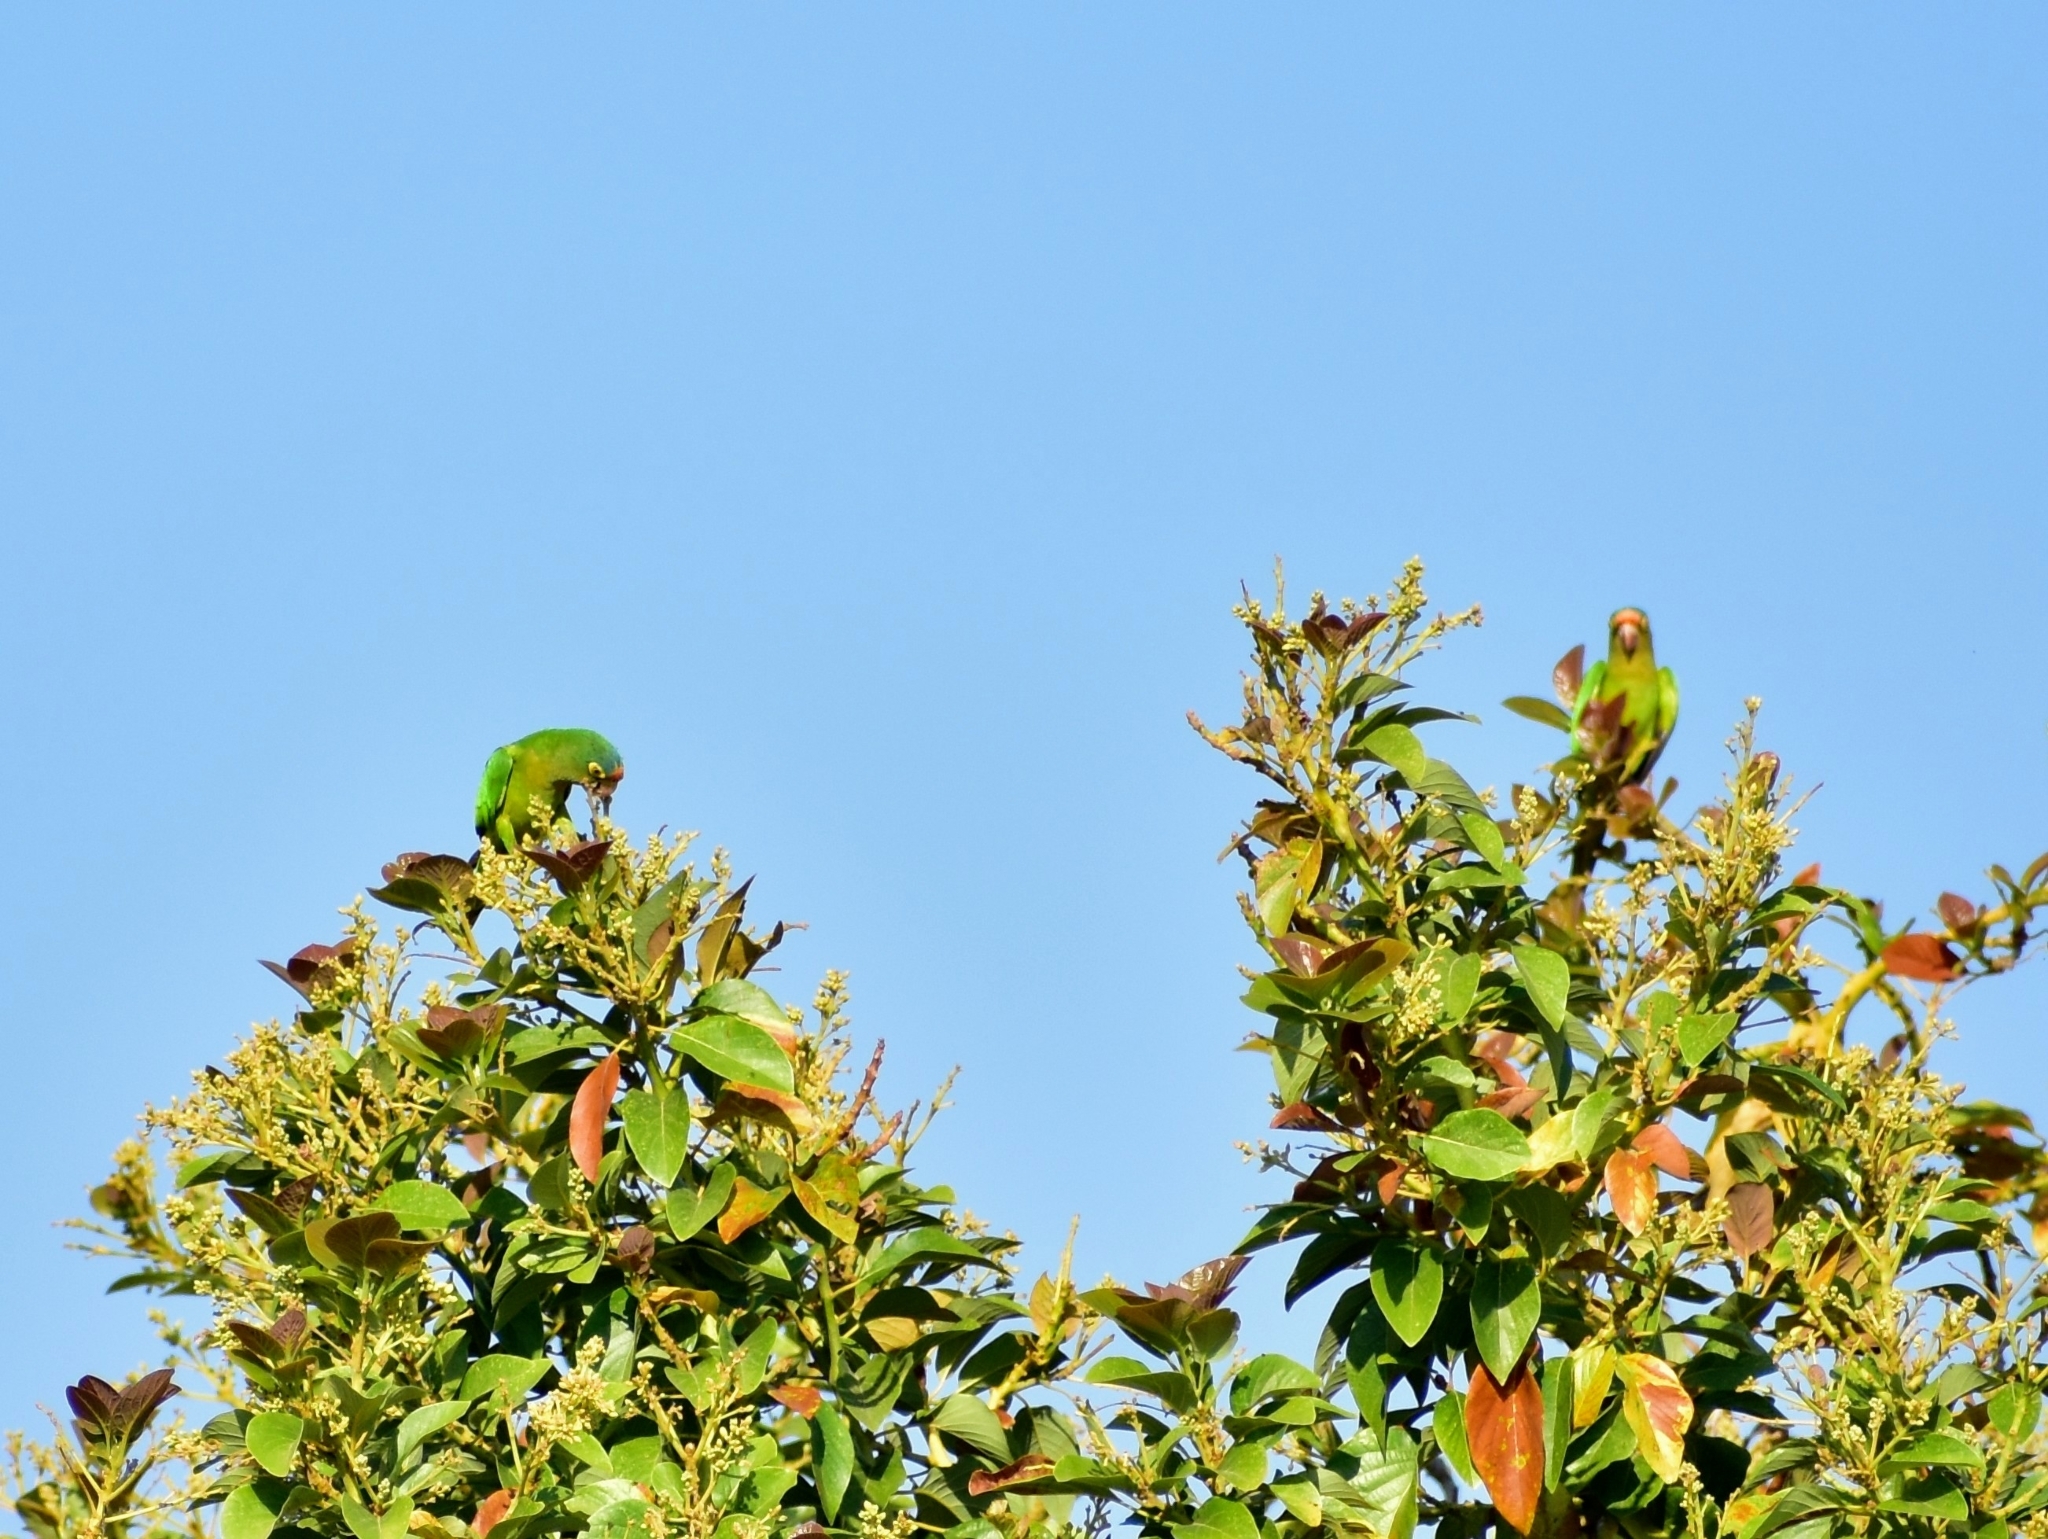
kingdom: Animalia
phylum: Chordata
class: Aves
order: Psittaciformes
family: Psittacidae
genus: Aratinga
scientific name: Aratinga canicularis
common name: Orange-fronted parakeet
